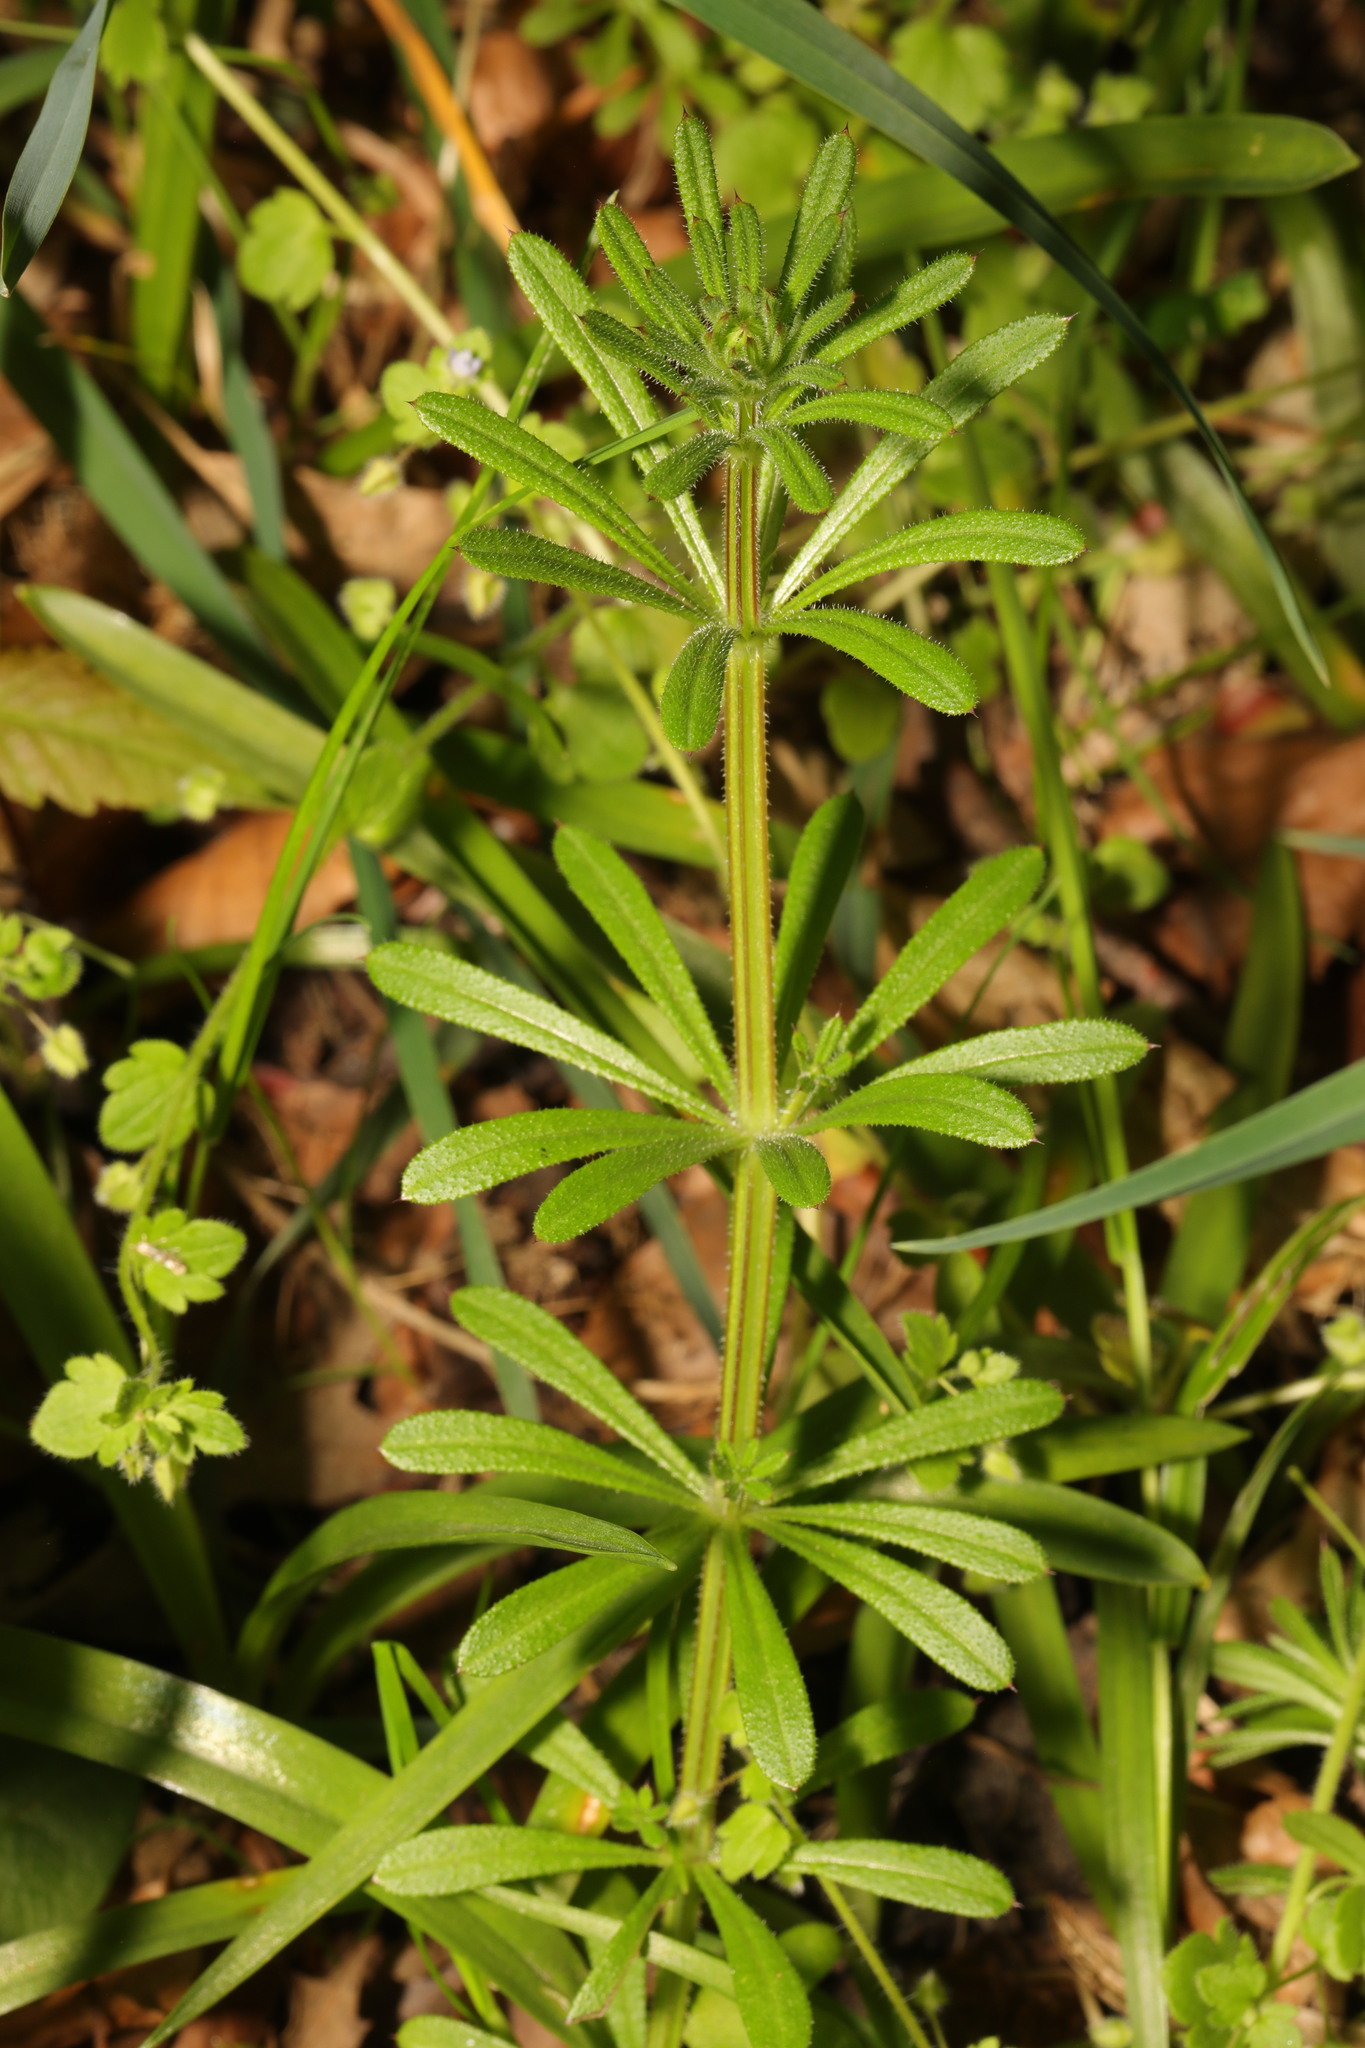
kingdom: Plantae
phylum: Tracheophyta
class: Magnoliopsida
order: Gentianales
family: Rubiaceae
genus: Galium
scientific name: Galium aparine
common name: Cleavers
